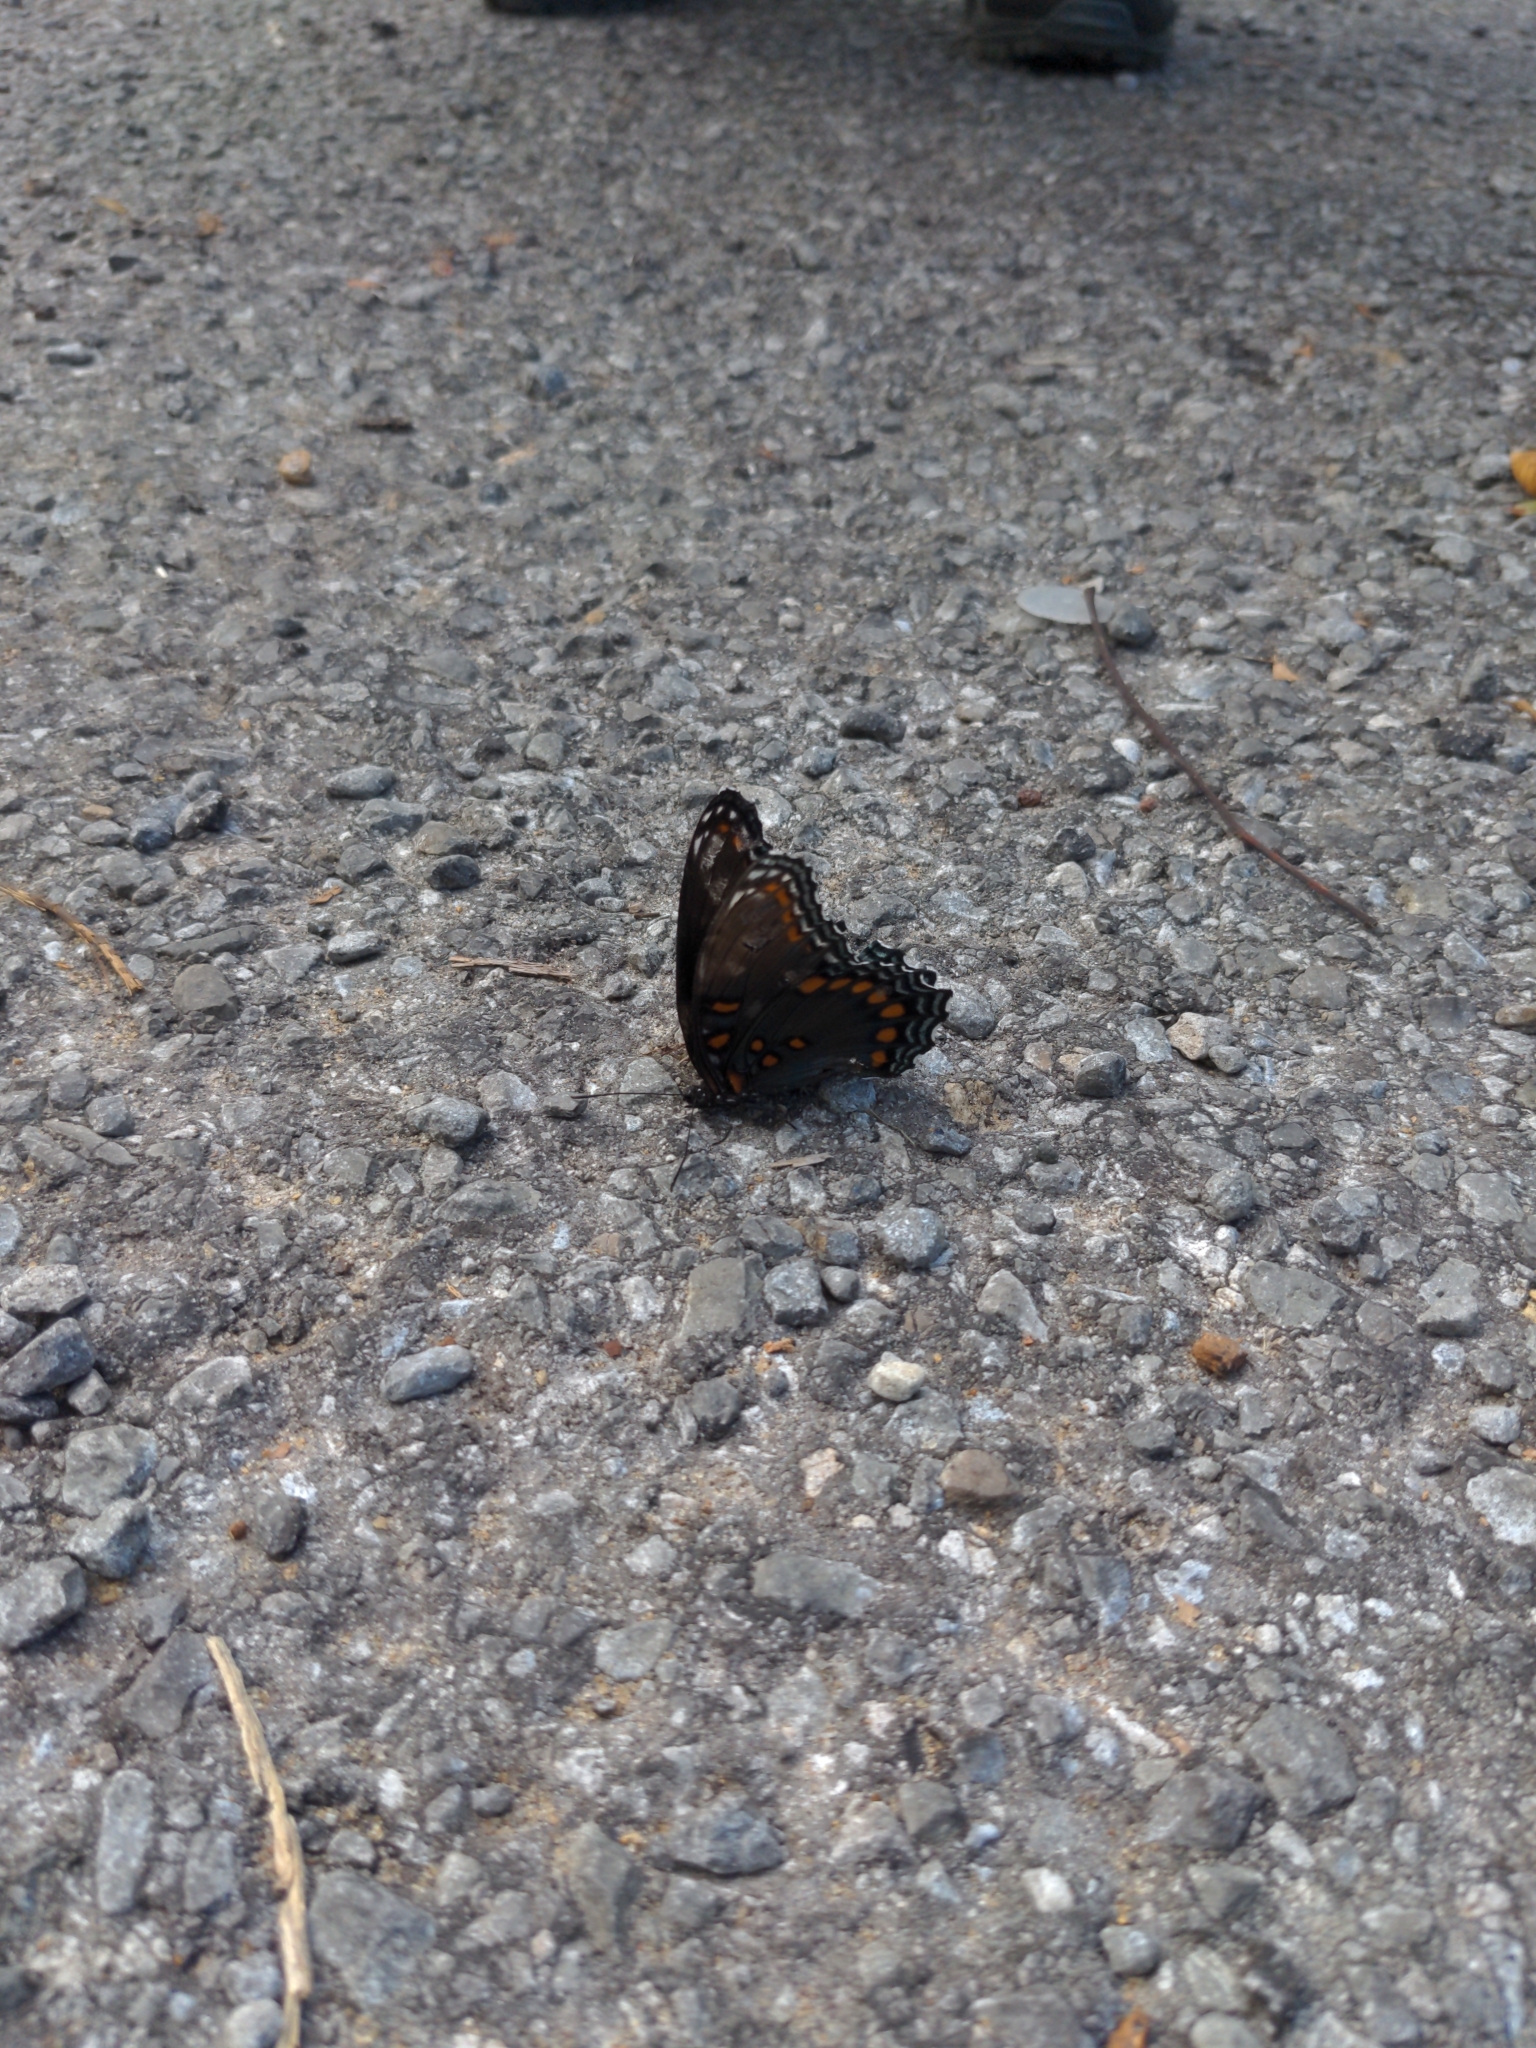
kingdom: Animalia
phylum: Arthropoda
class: Insecta
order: Lepidoptera
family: Nymphalidae
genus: Limenitis
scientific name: Limenitis astyanax
